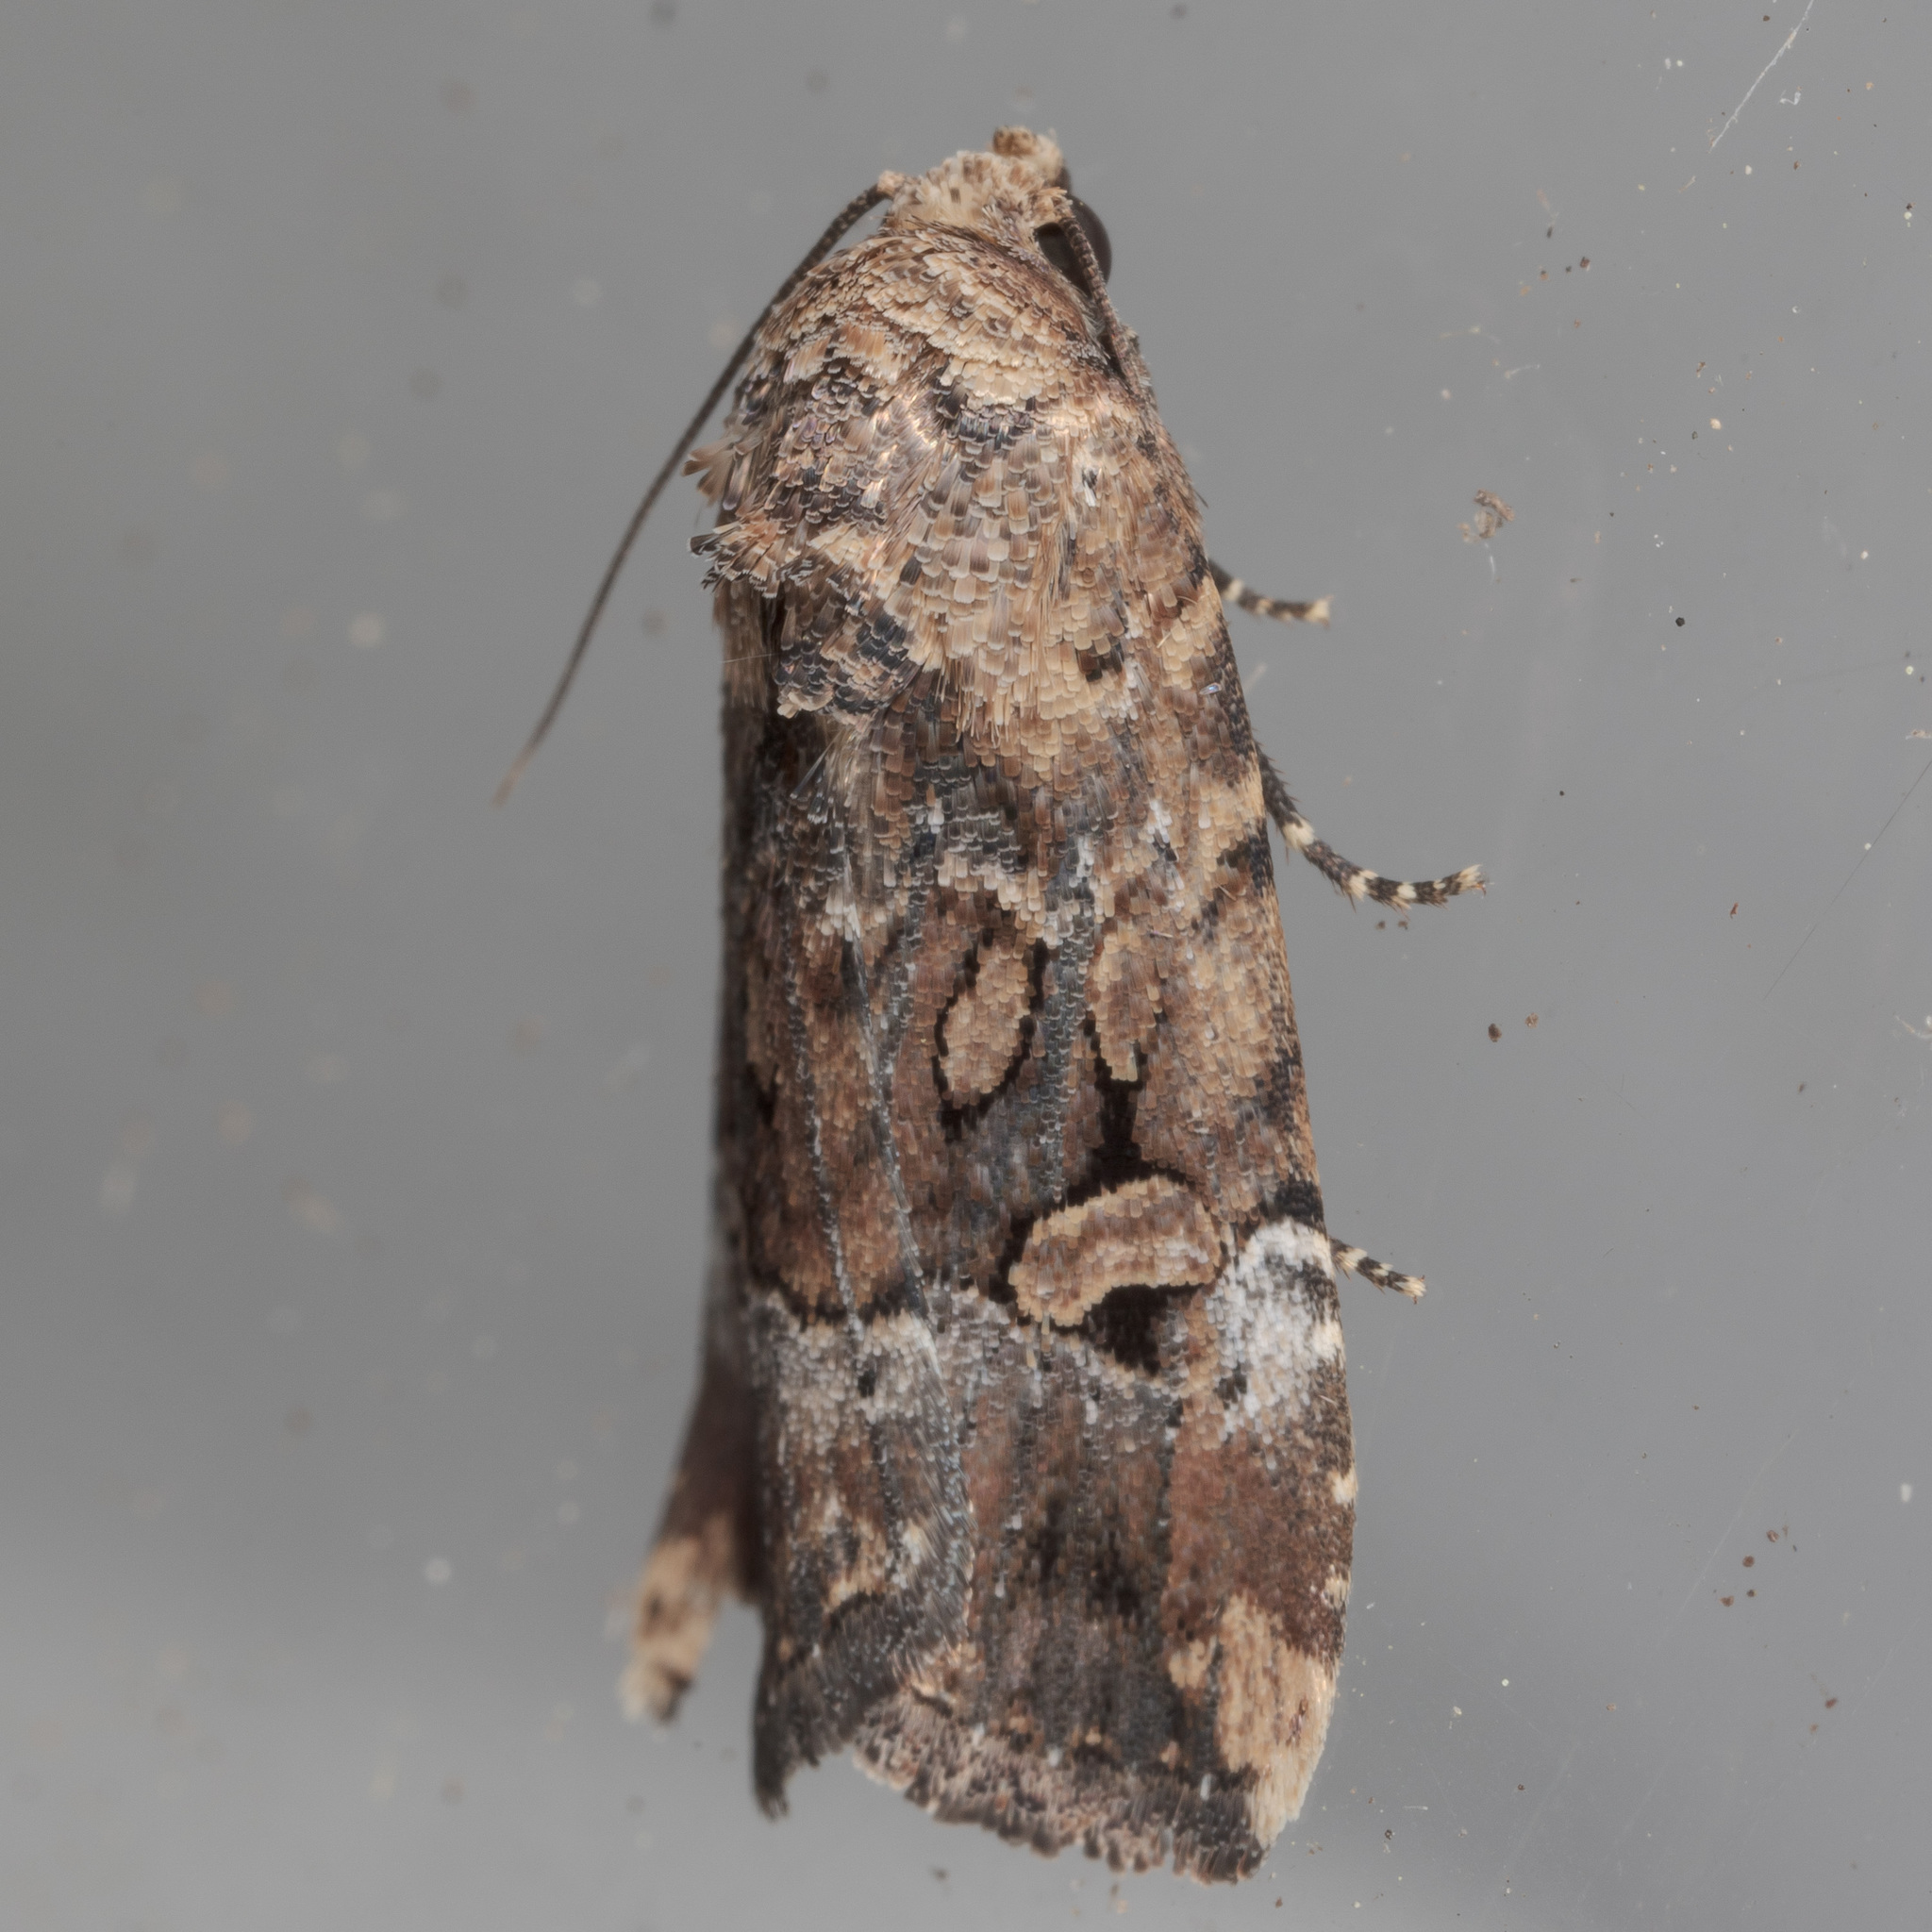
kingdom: Animalia
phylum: Arthropoda
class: Insecta
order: Lepidoptera
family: Noctuidae
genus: Elaphria
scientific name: Elaphria chalcedonia
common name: Chalcedony midget
